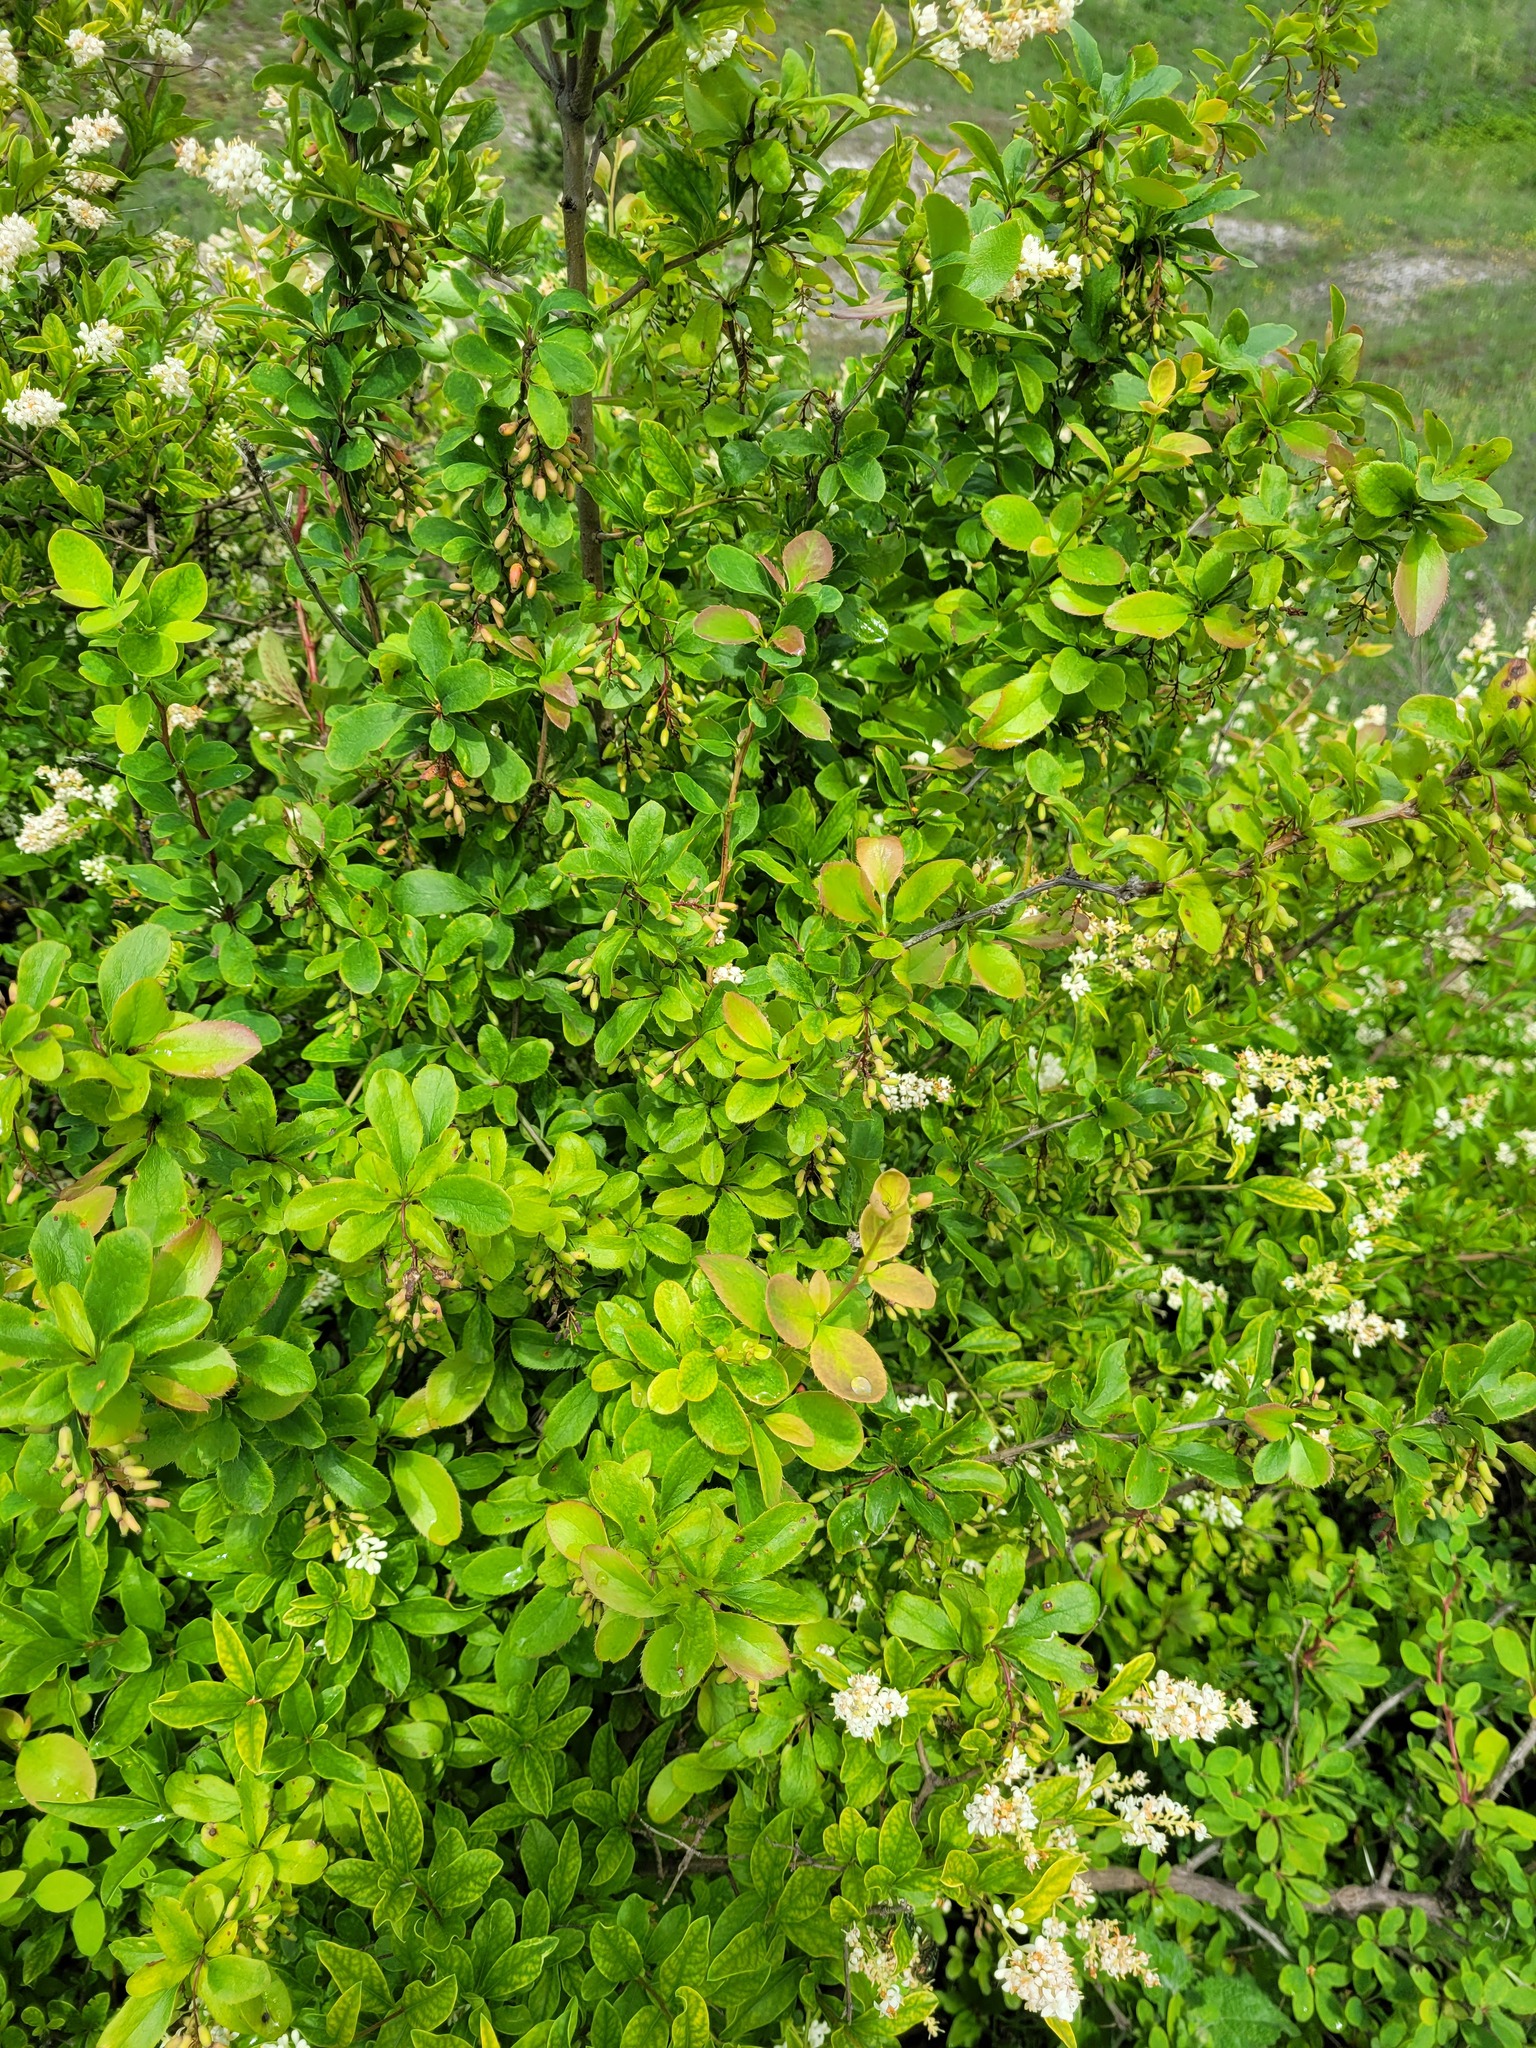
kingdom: Plantae
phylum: Tracheophyta
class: Magnoliopsida
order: Ranunculales
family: Berberidaceae
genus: Berberis
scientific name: Berberis vulgaris
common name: Barberry
